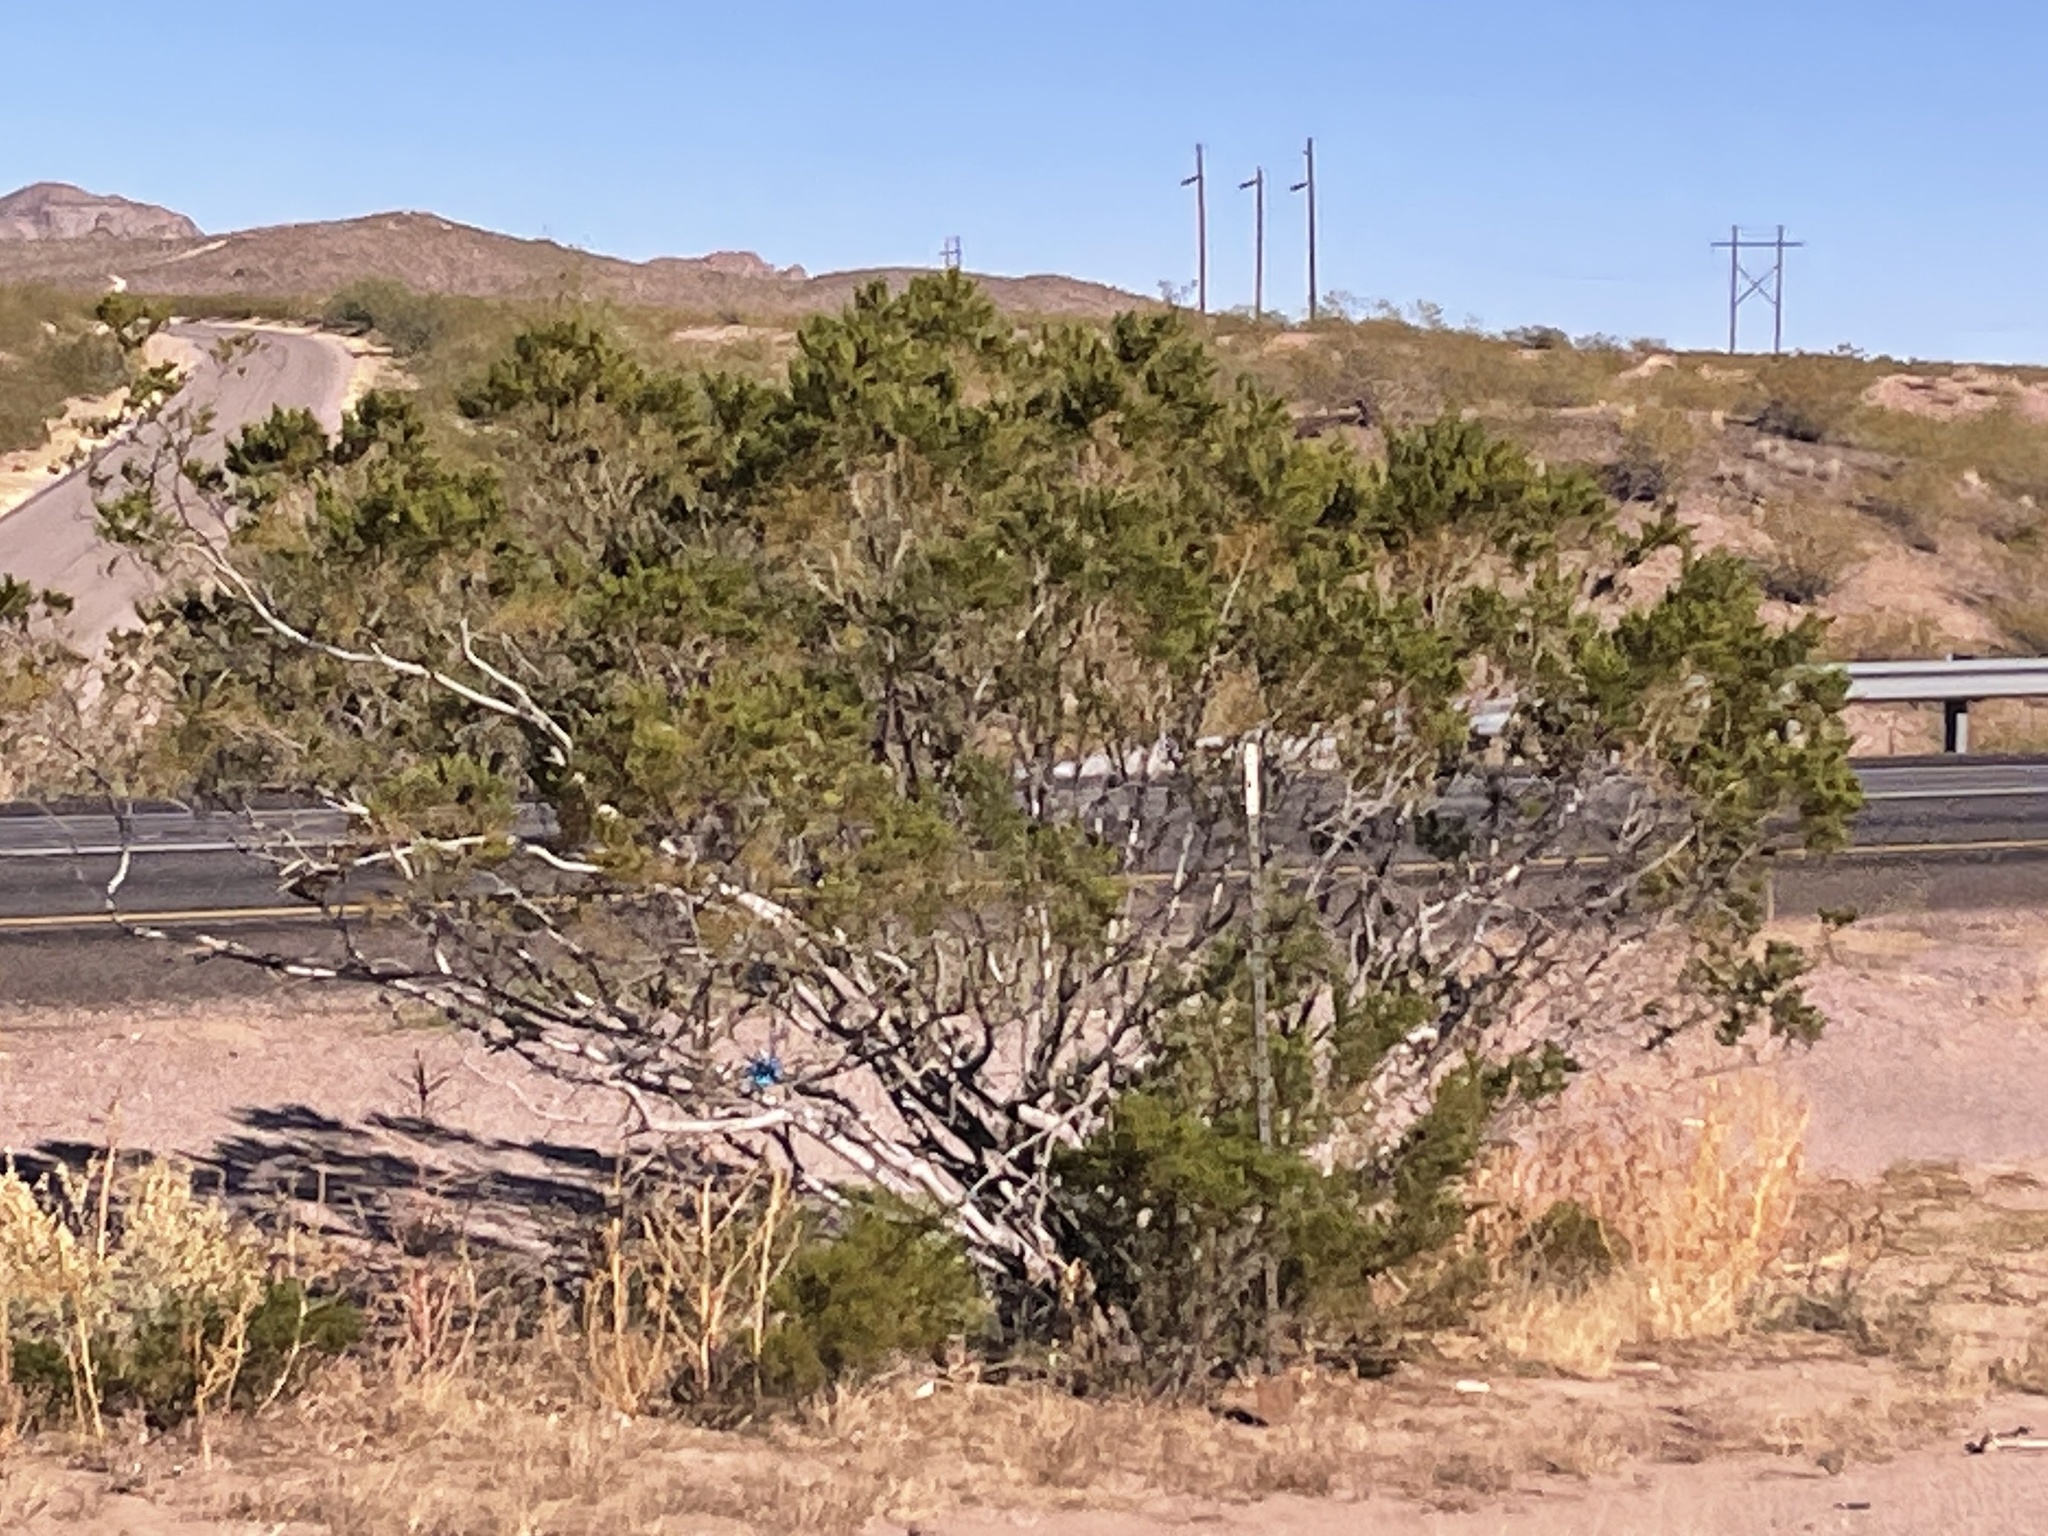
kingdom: Plantae
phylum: Tracheophyta
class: Magnoliopsida
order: Zygophyllales
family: Zygophyllaceae
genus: Larrea
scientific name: Larrea tridentata
